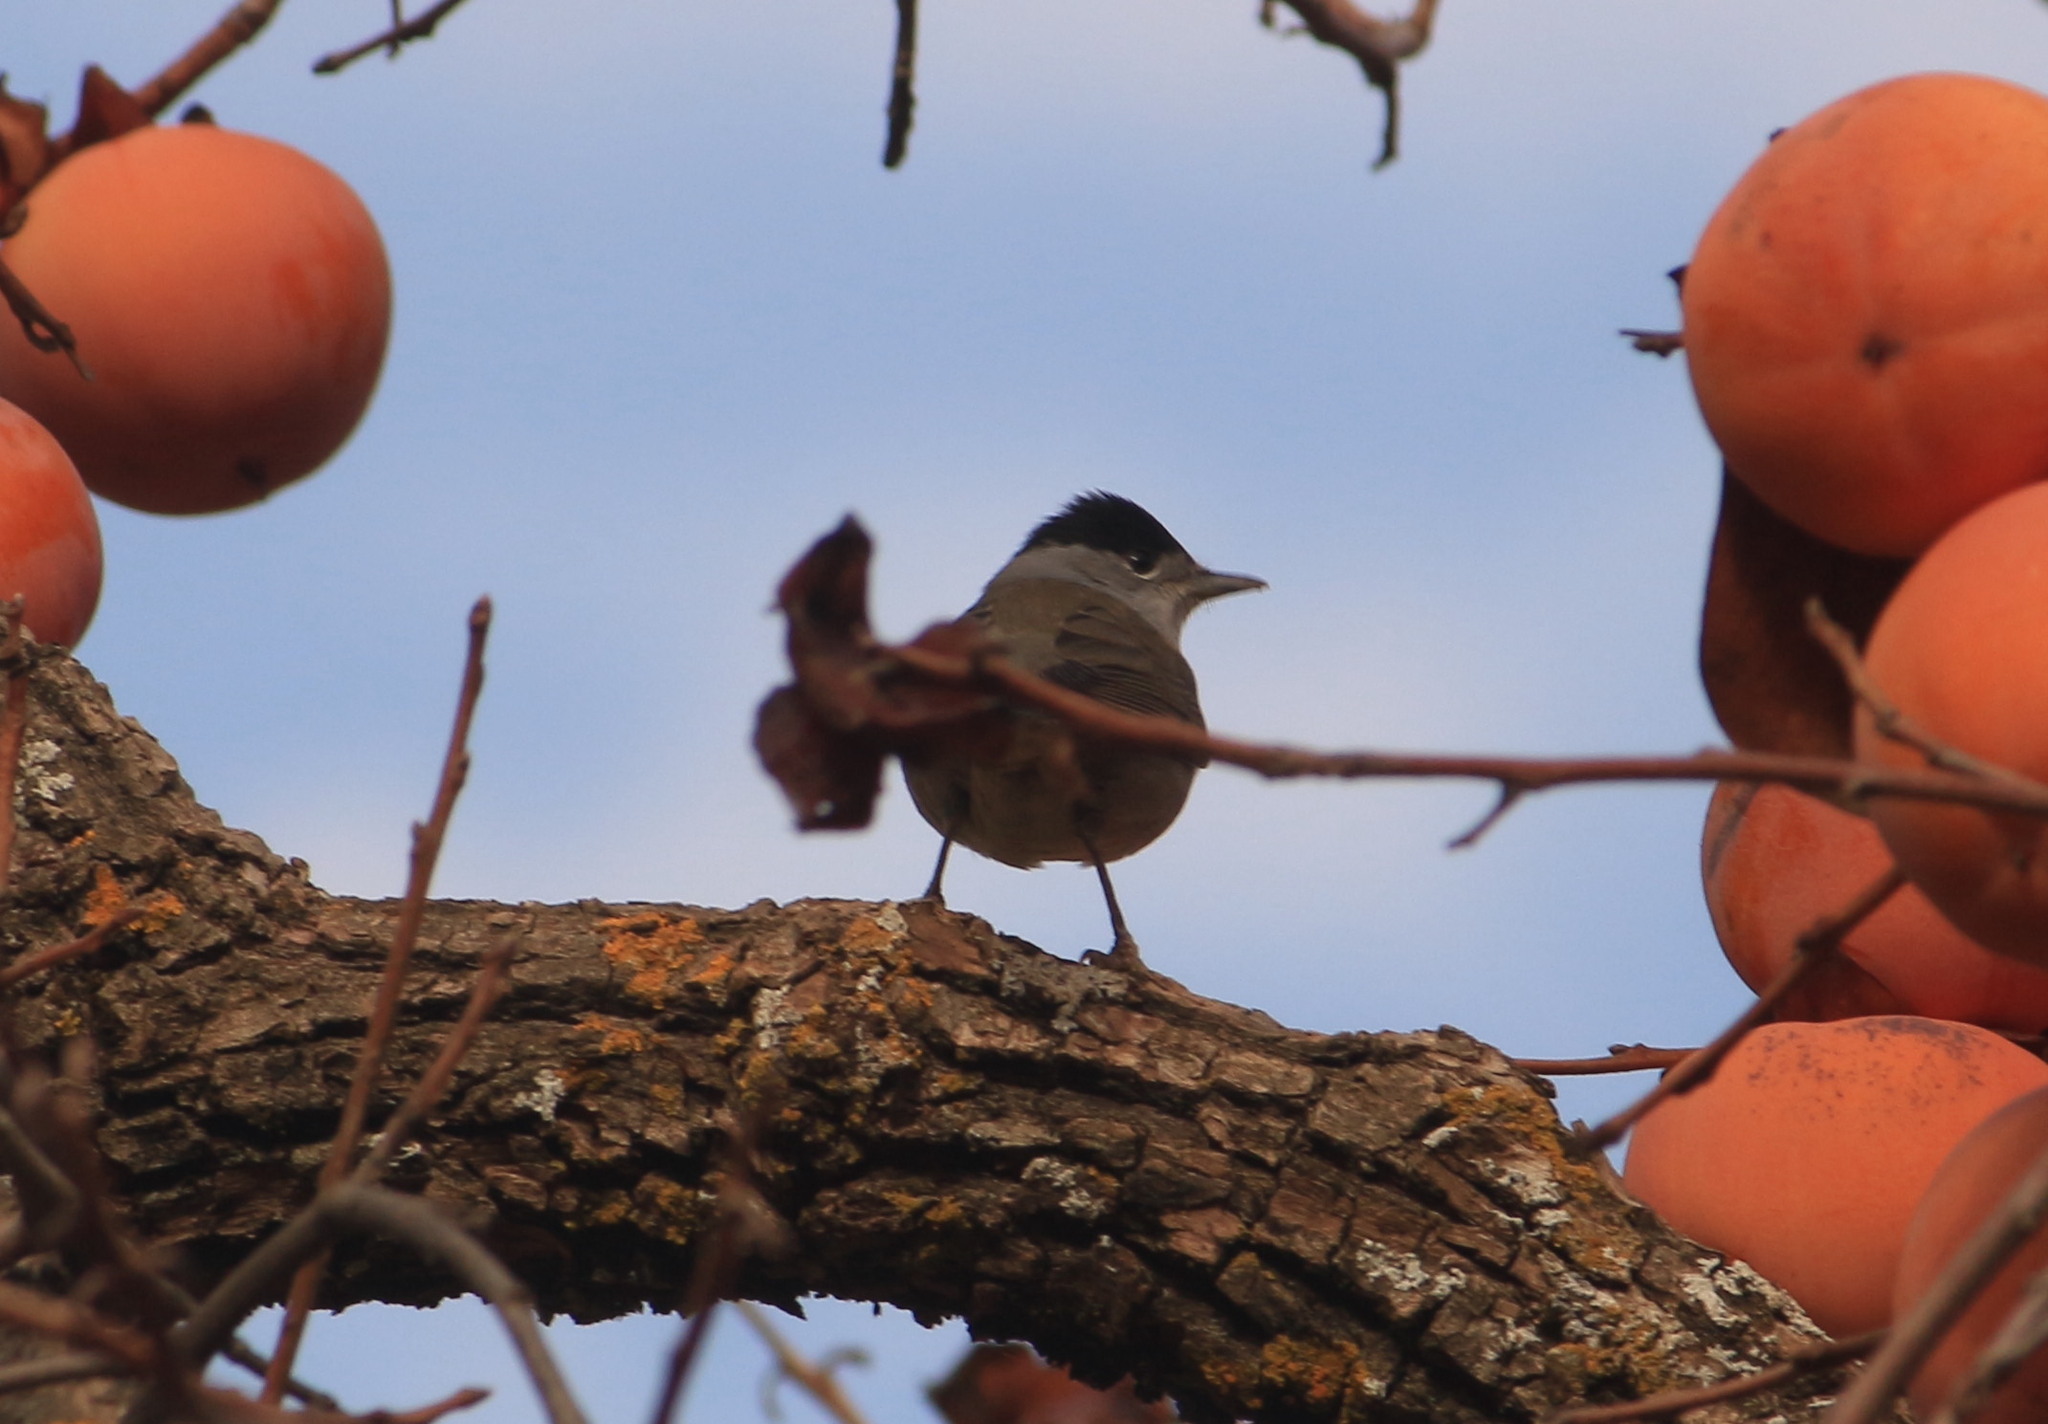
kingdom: Animalia
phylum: Chordata
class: Aves
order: Passeriformes
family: Sylviidae
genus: Sylvia
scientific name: Sylvia atricapilla
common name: Eurasian blackcap
